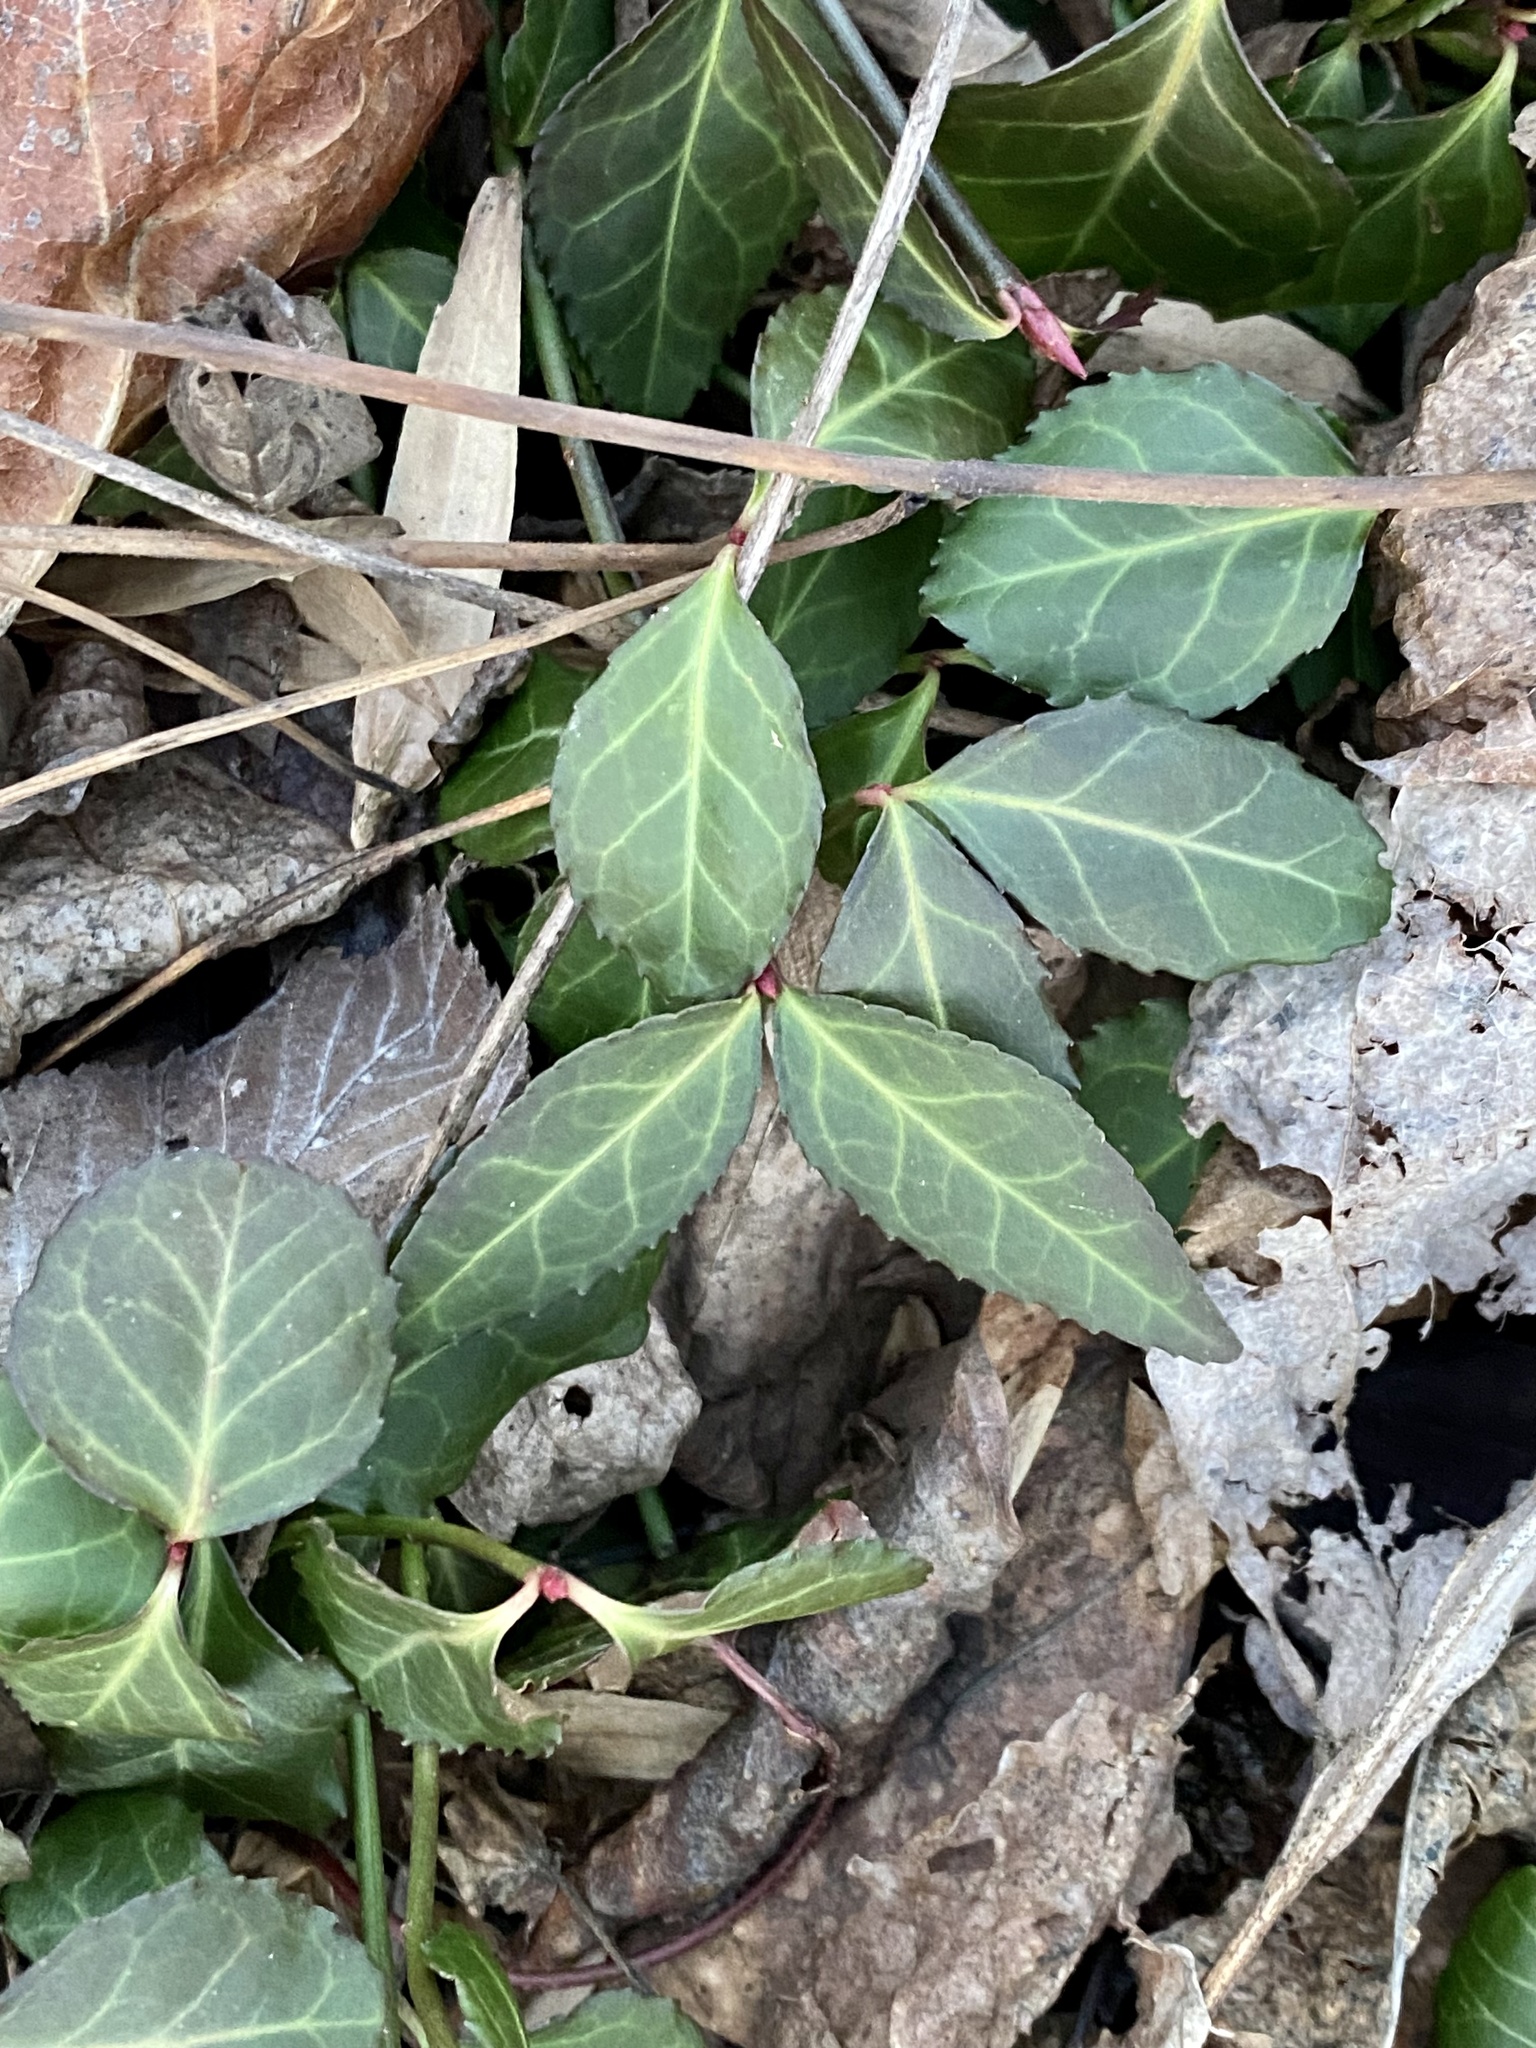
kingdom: Plantae
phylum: Tracheophyta
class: Magnoliopsida
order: Celastrales
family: Celastraceae
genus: Euonymus
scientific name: Euonymus fortunei
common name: Climbing euonymus
